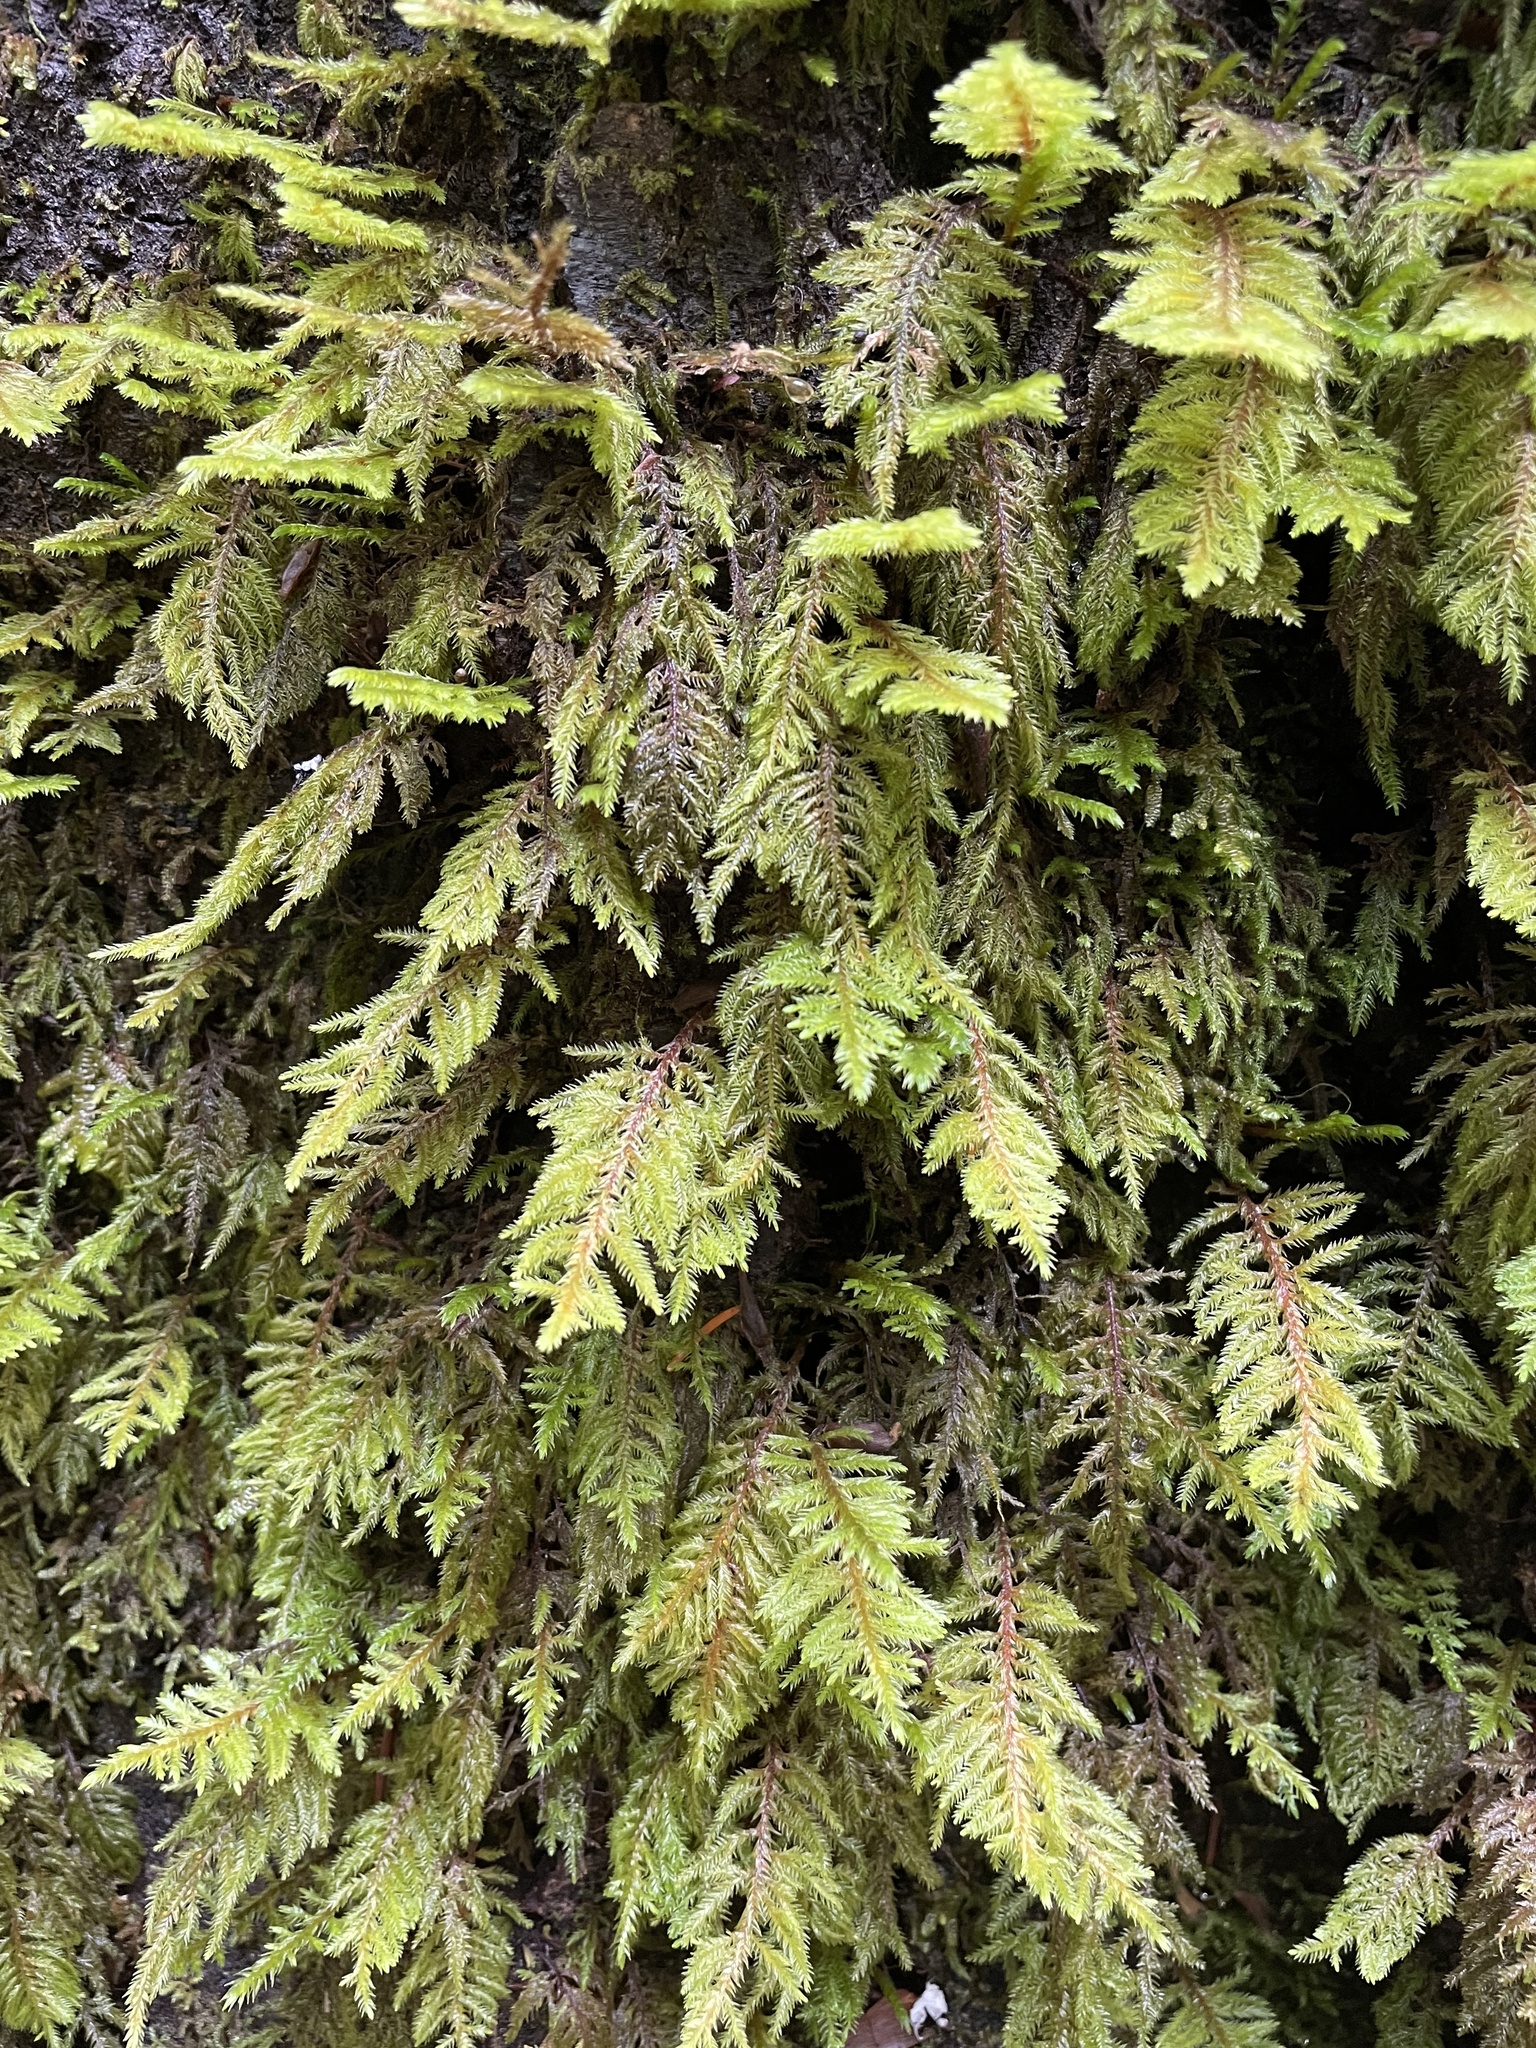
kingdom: Plantae
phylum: Bryophyta
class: Bryopsida
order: Hypnales
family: Cryphaeaceae
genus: Dendroalsia
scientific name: Dendroalsia abietina
